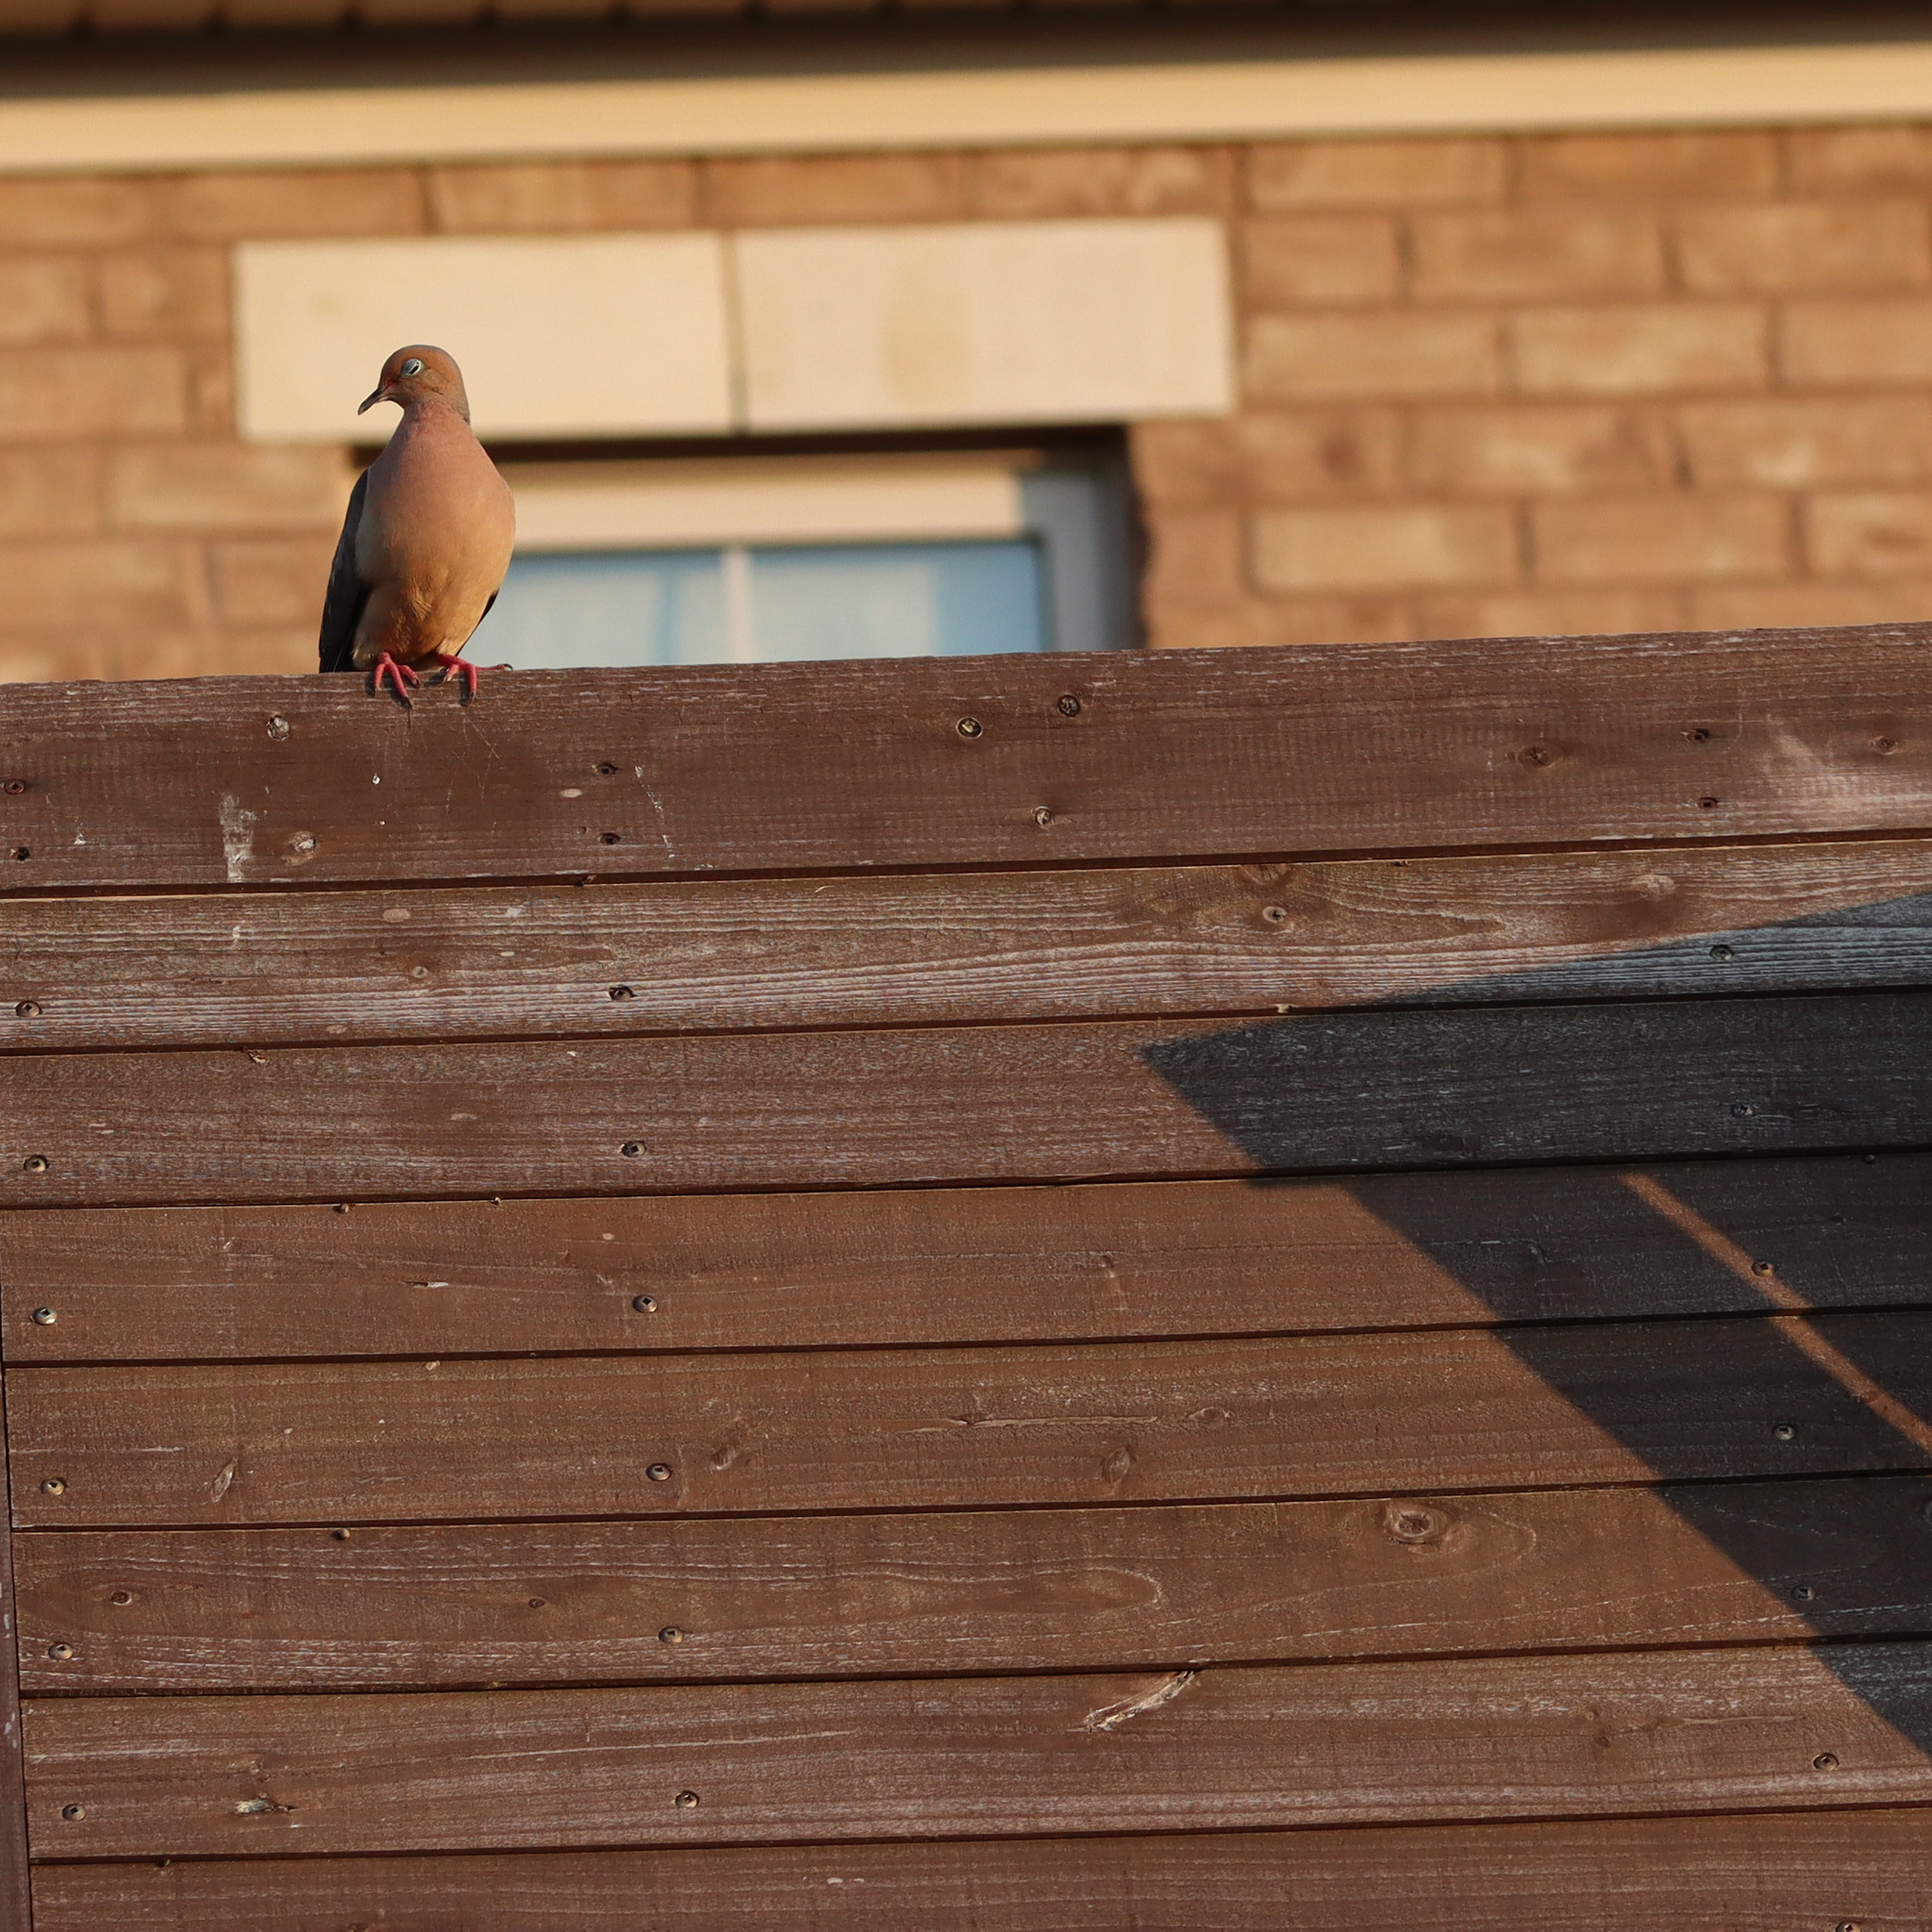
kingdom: Animalia
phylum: Chordata
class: Aves
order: Columbiformes
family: Columbidae
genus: Zenaida
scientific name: Zenaida macroura
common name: Mourning dove
